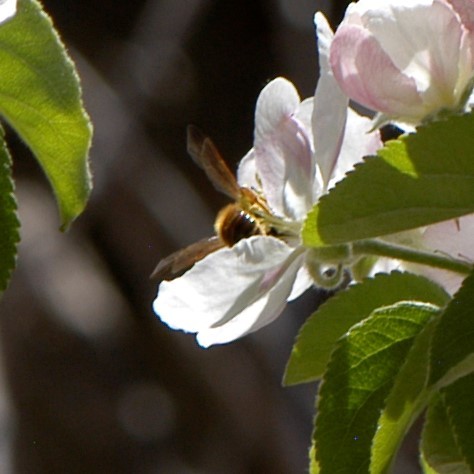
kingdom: Animalia
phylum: Arthropoda
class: Insecta
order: Hymenoptera
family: Andrenidae
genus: Andrena
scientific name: Andrena prunorum
